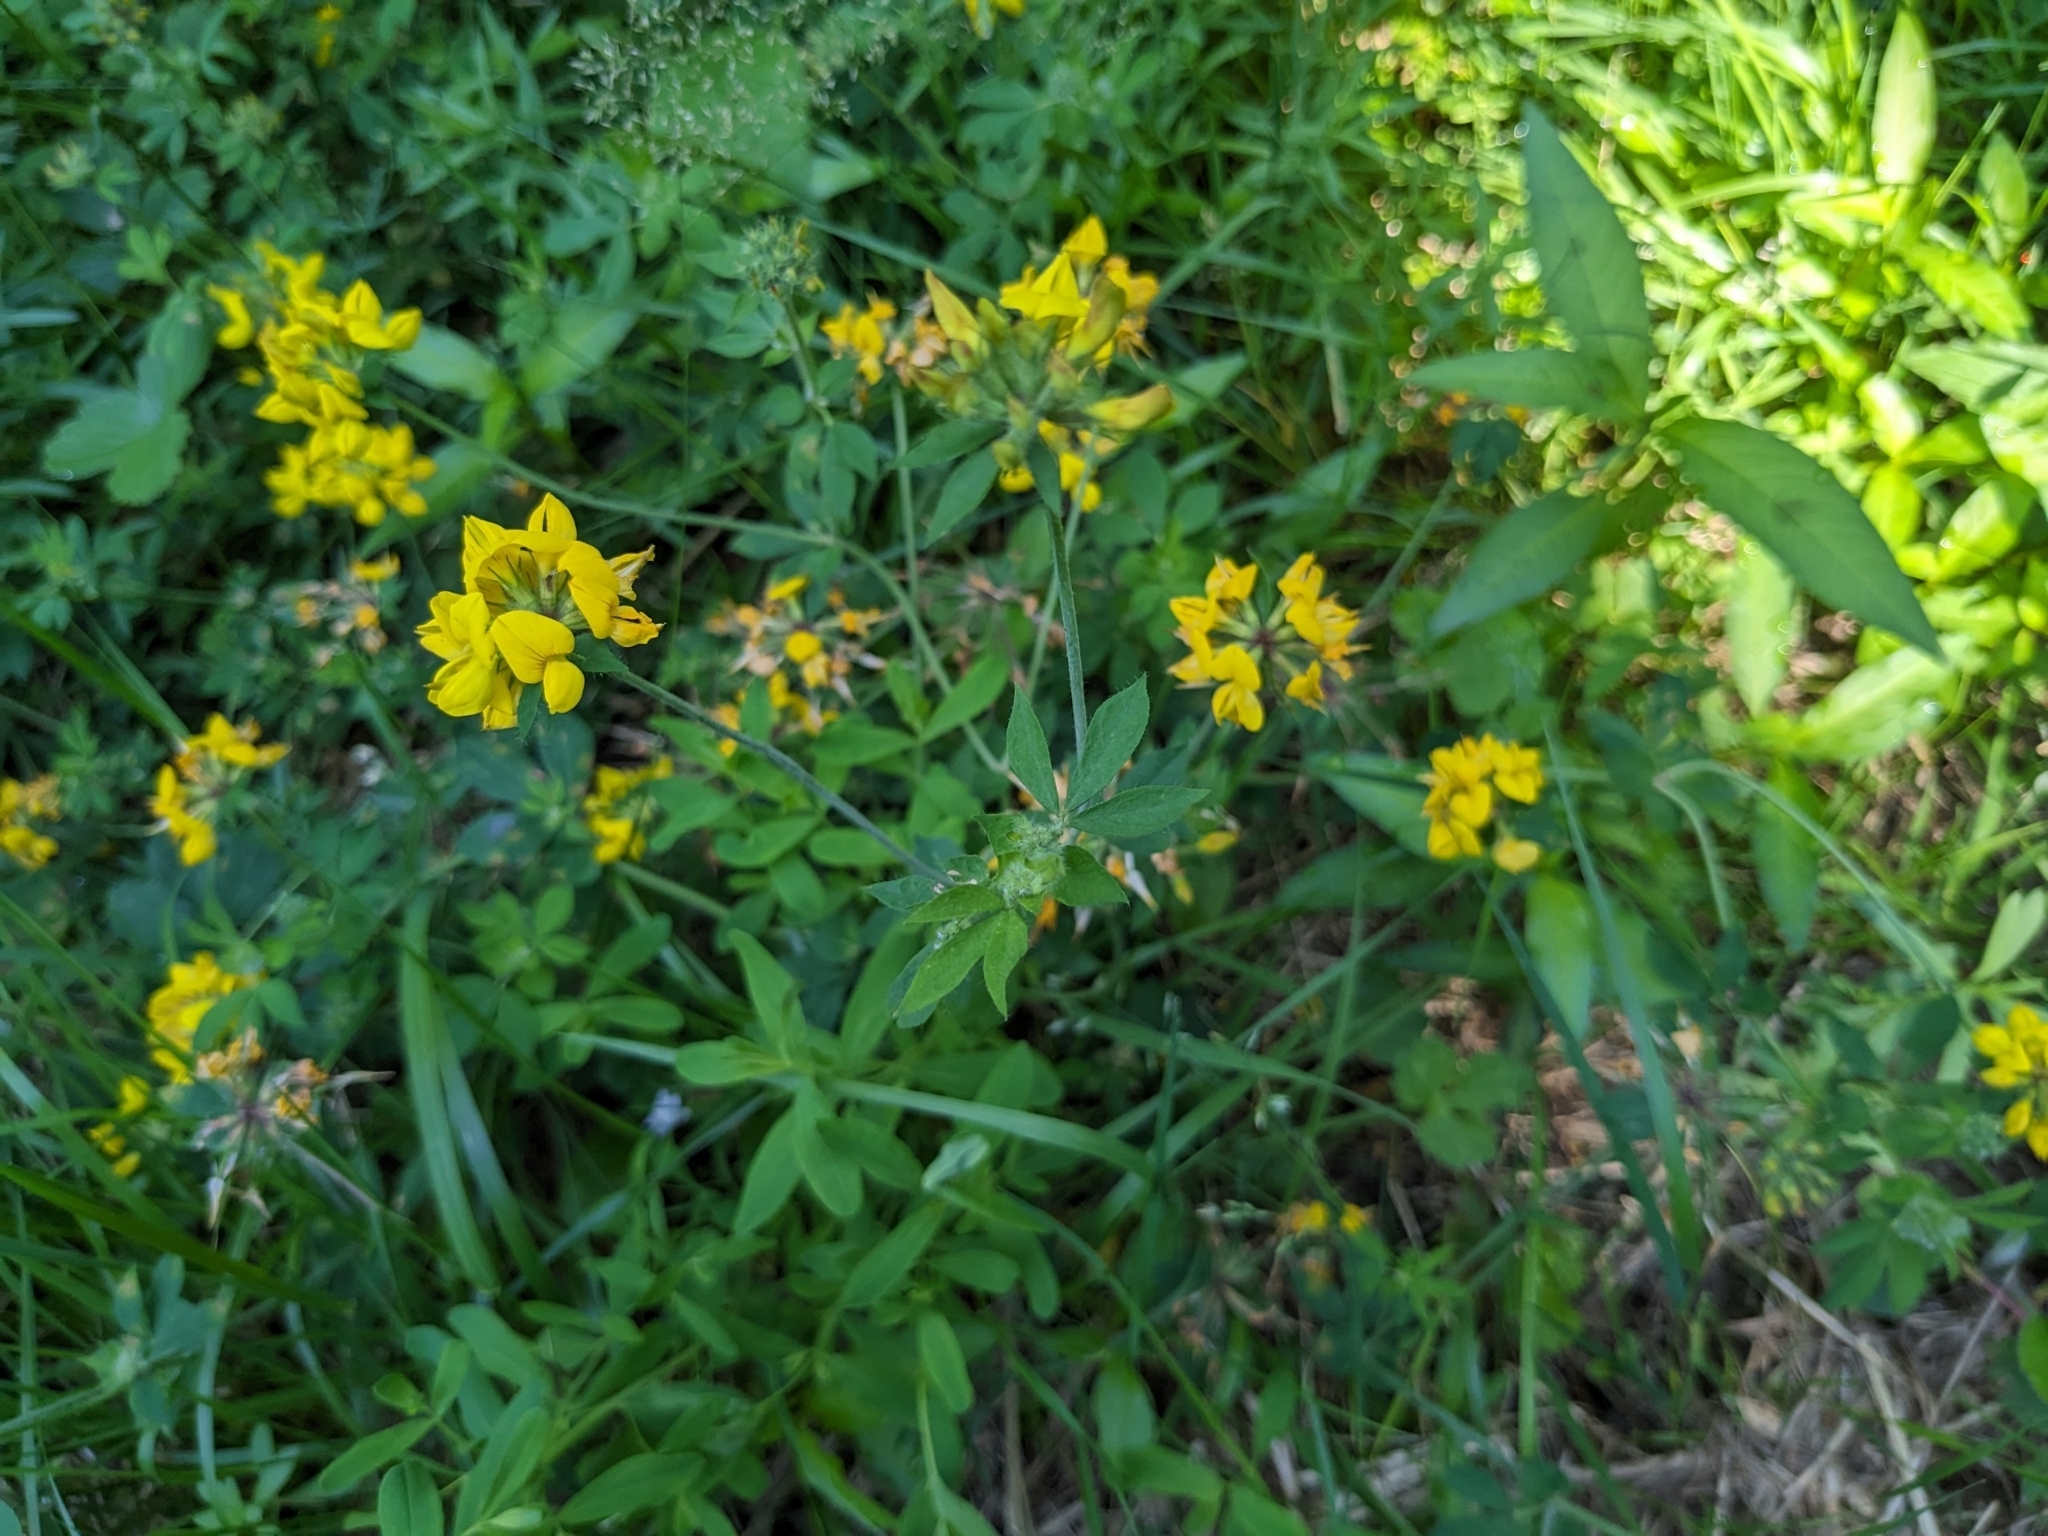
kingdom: Plantae
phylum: Tracheophyta
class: Magnoliopsida
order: Fabales
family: Fabaceae
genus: Lotus
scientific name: Lotus pedunculatus
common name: Greater birdsfoot-trefoil
